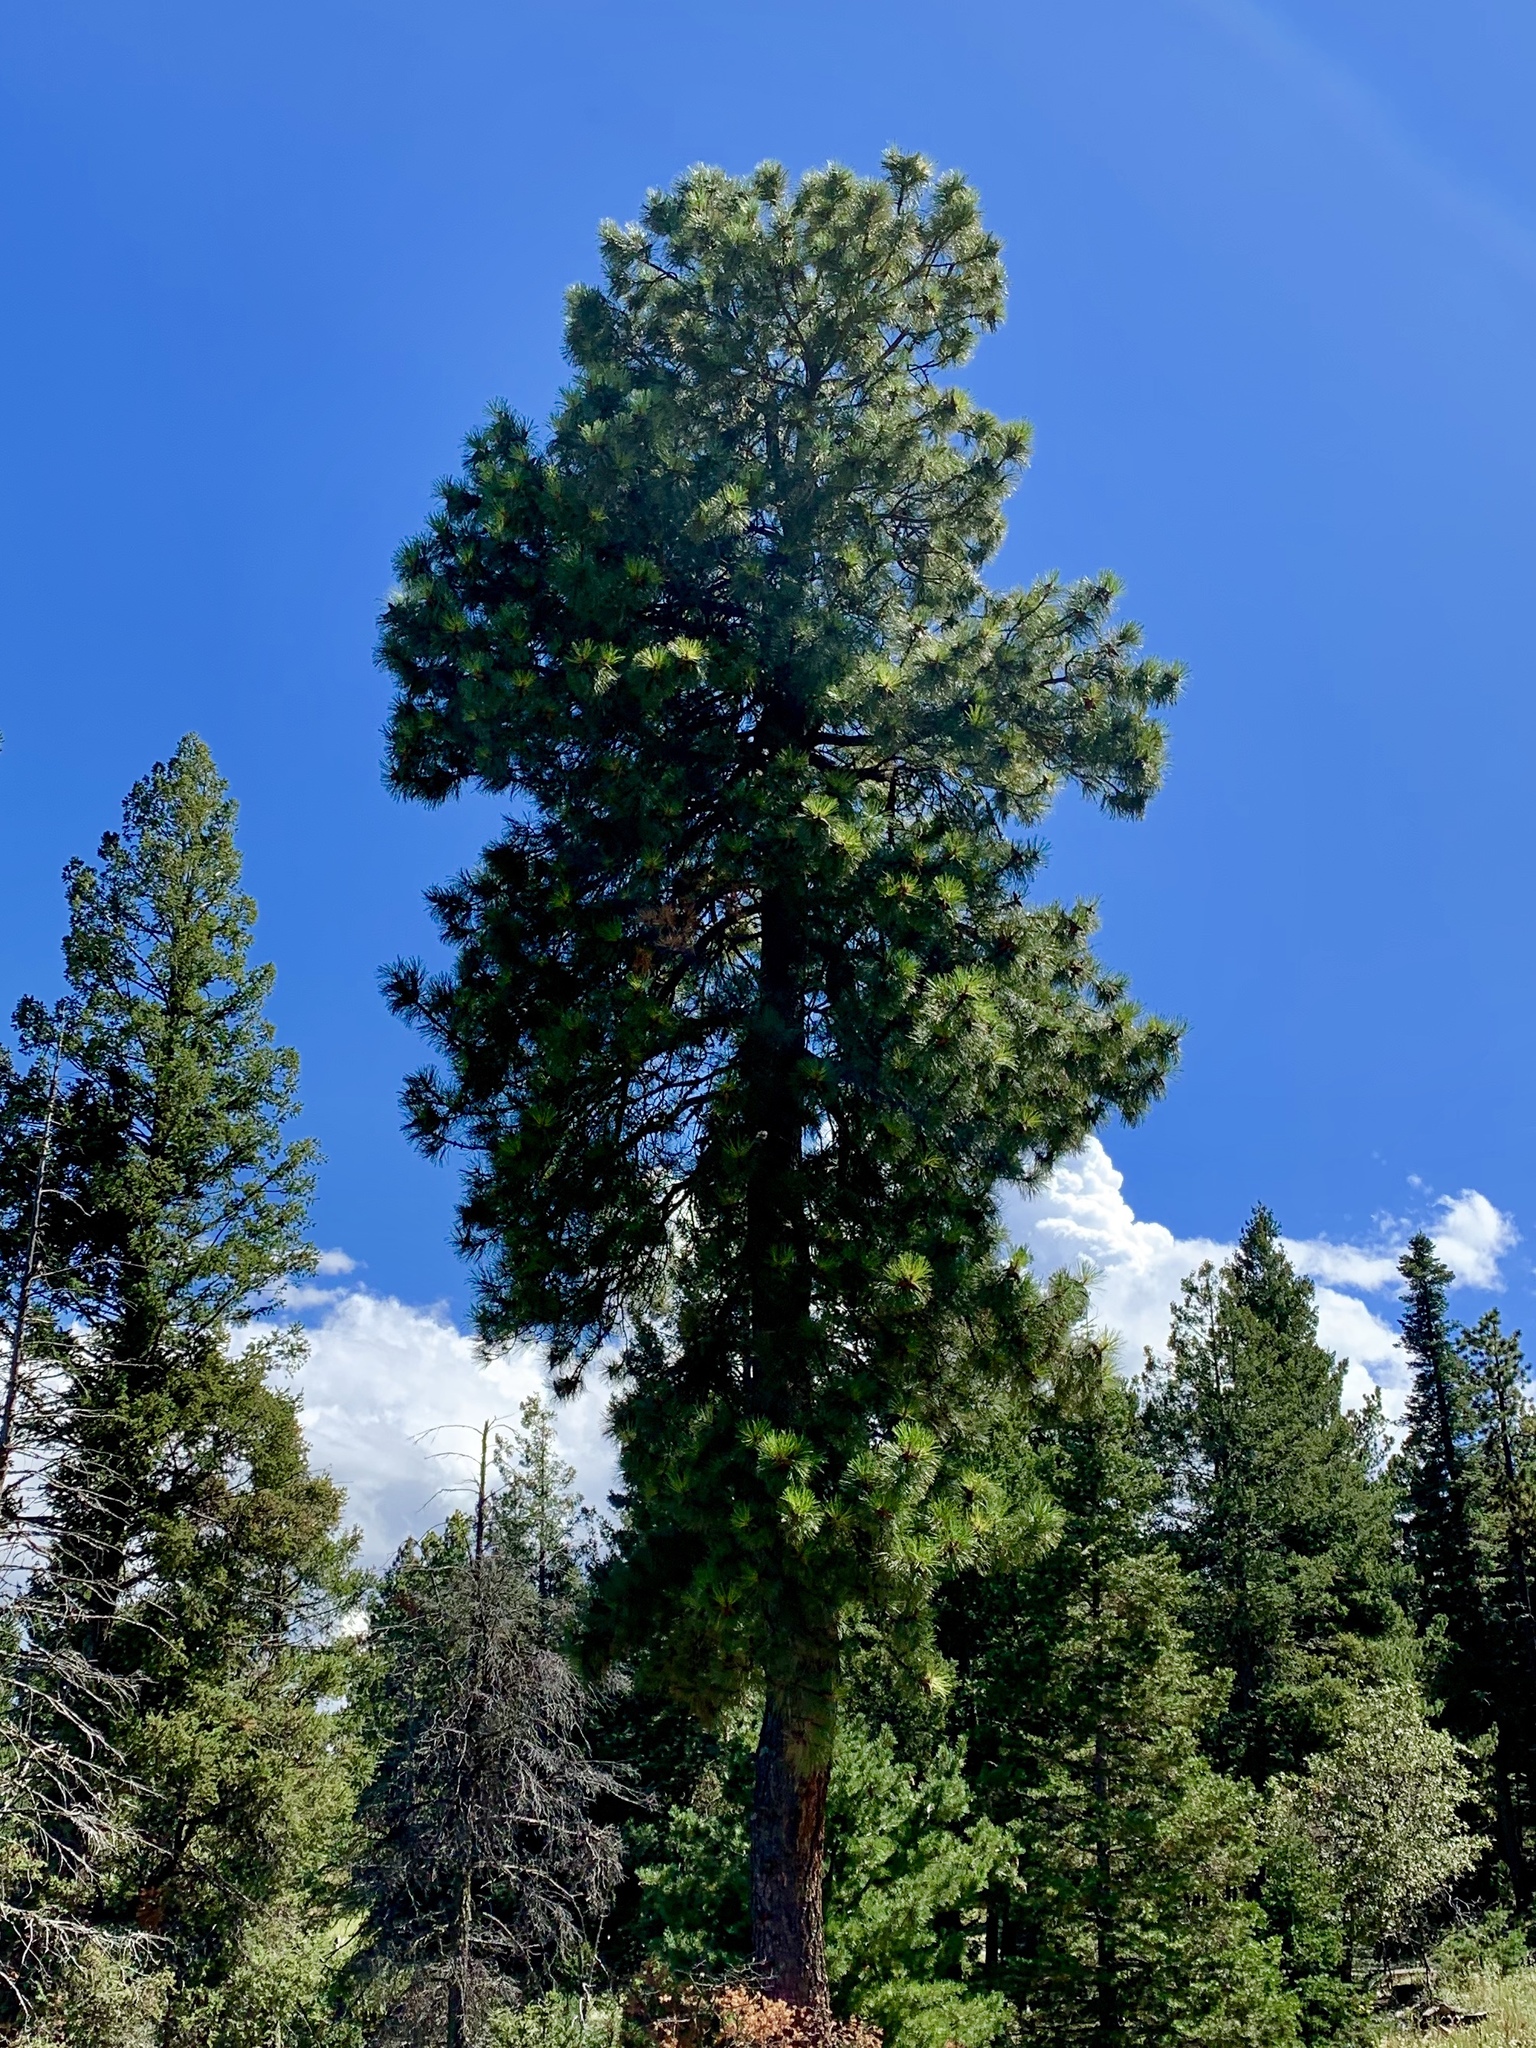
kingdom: Plantae
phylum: Tracheophyta
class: Pinopsida
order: Pinales
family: Pinaceae
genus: Pinus
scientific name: Pinus ponderosa
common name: Western yellow-pine
